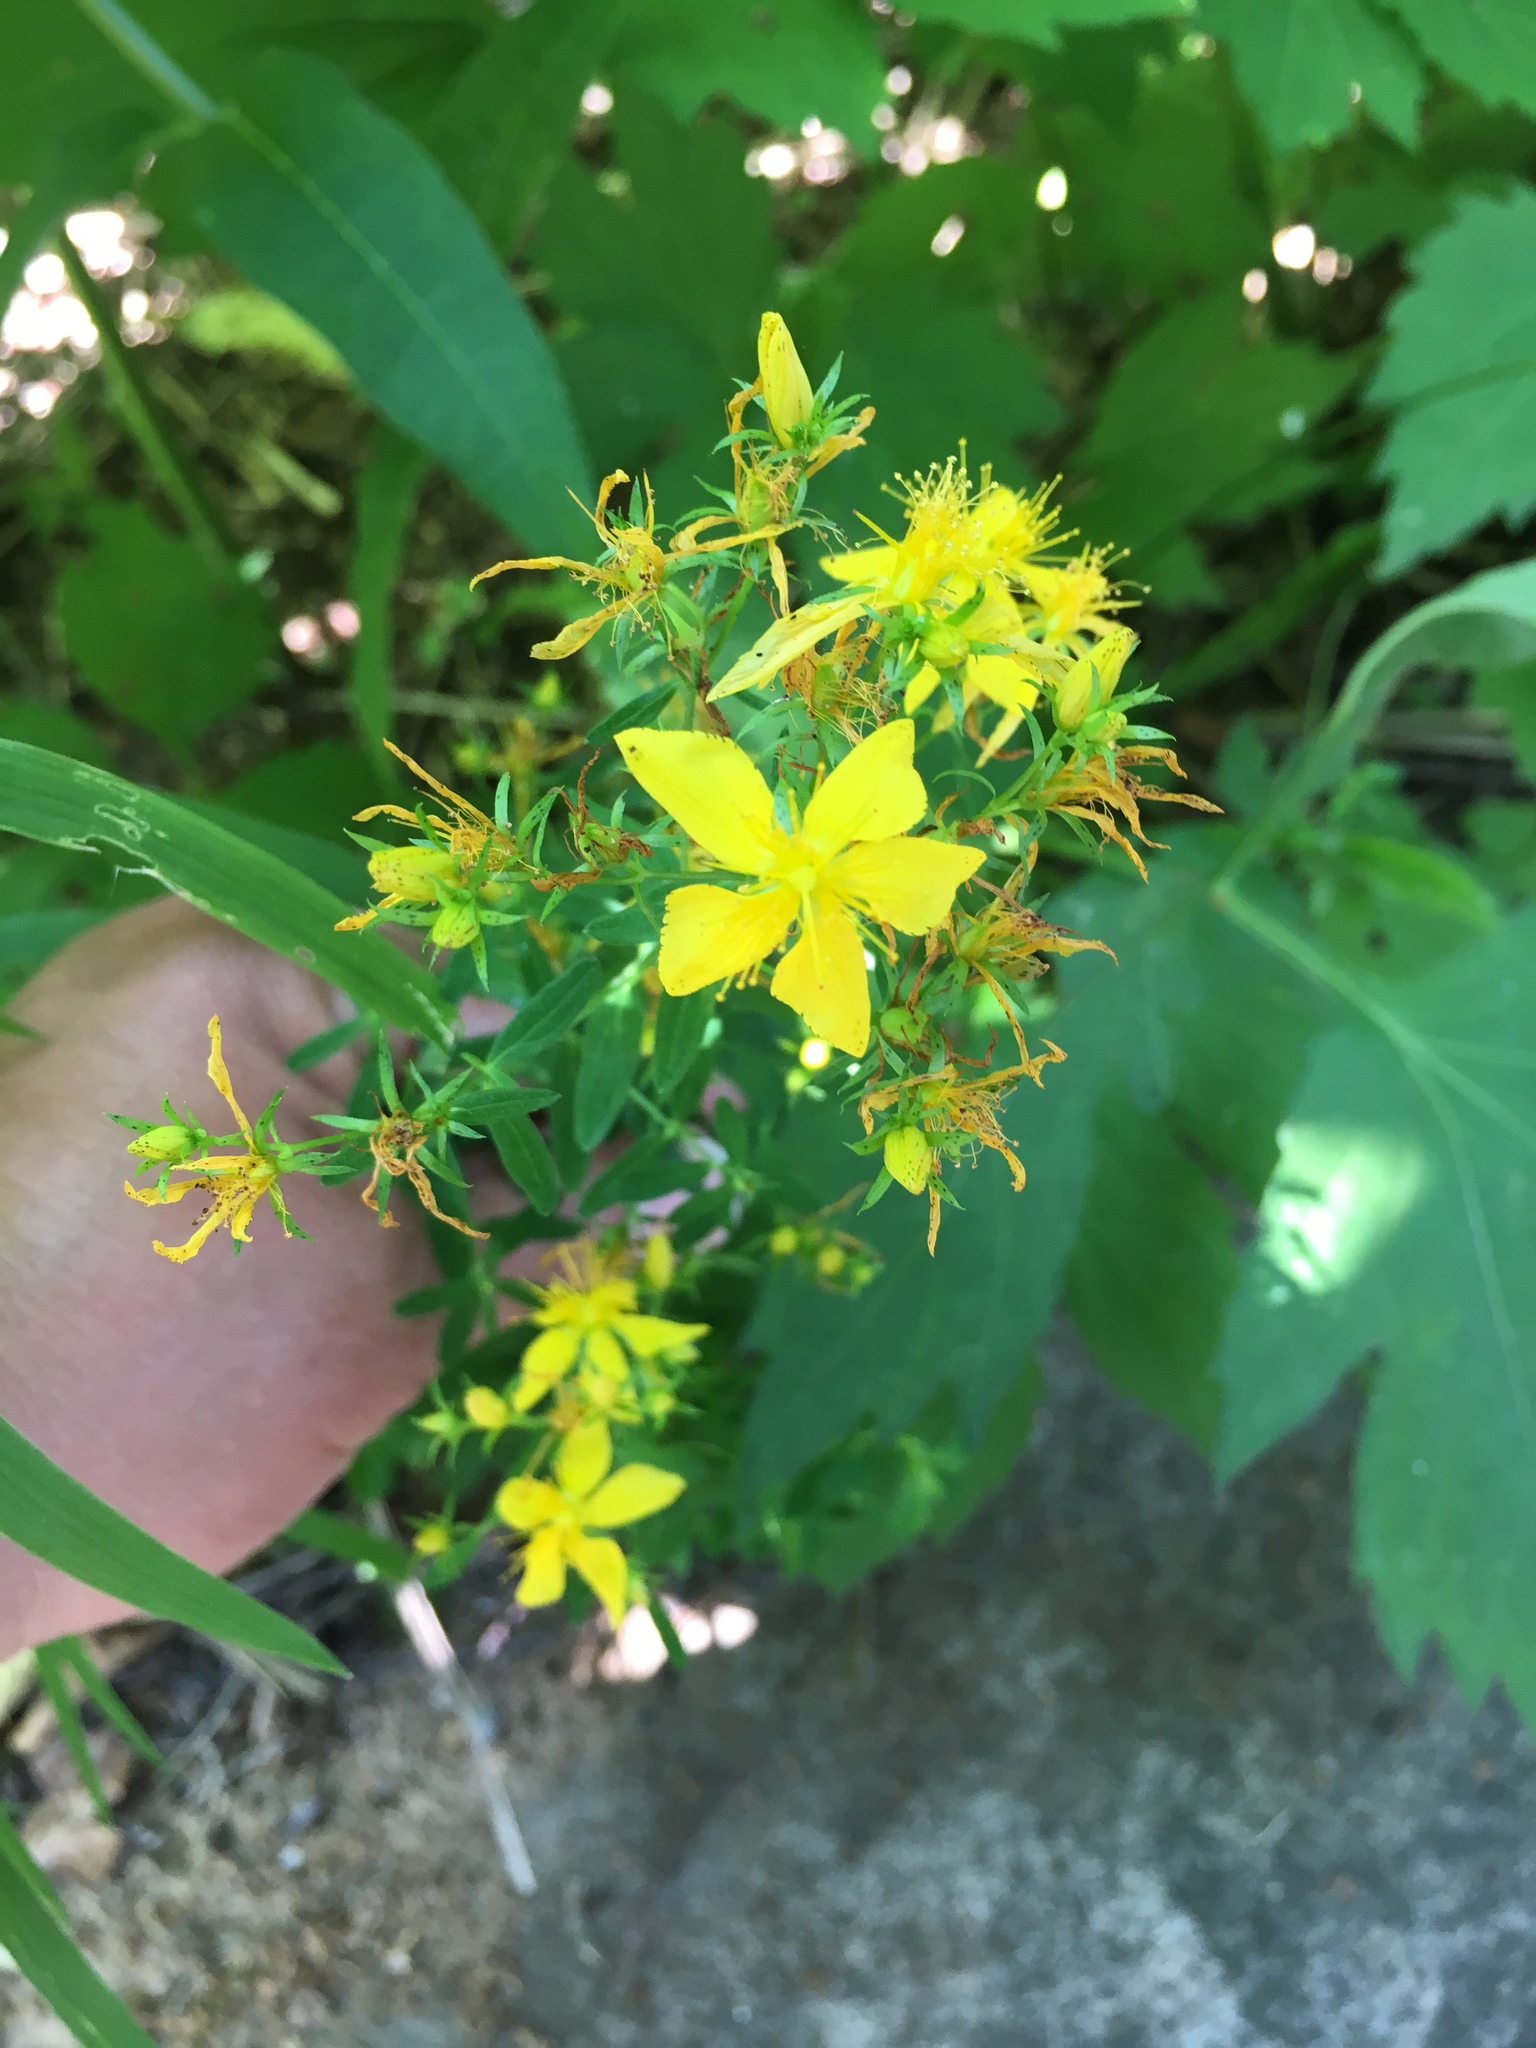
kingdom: Plantae
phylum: Tracheophyta
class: Magnoliopsida
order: Malpighiales
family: Hypericaceae
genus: Hypericum
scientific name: Hypericum perforatum
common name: Common st. johnswort
